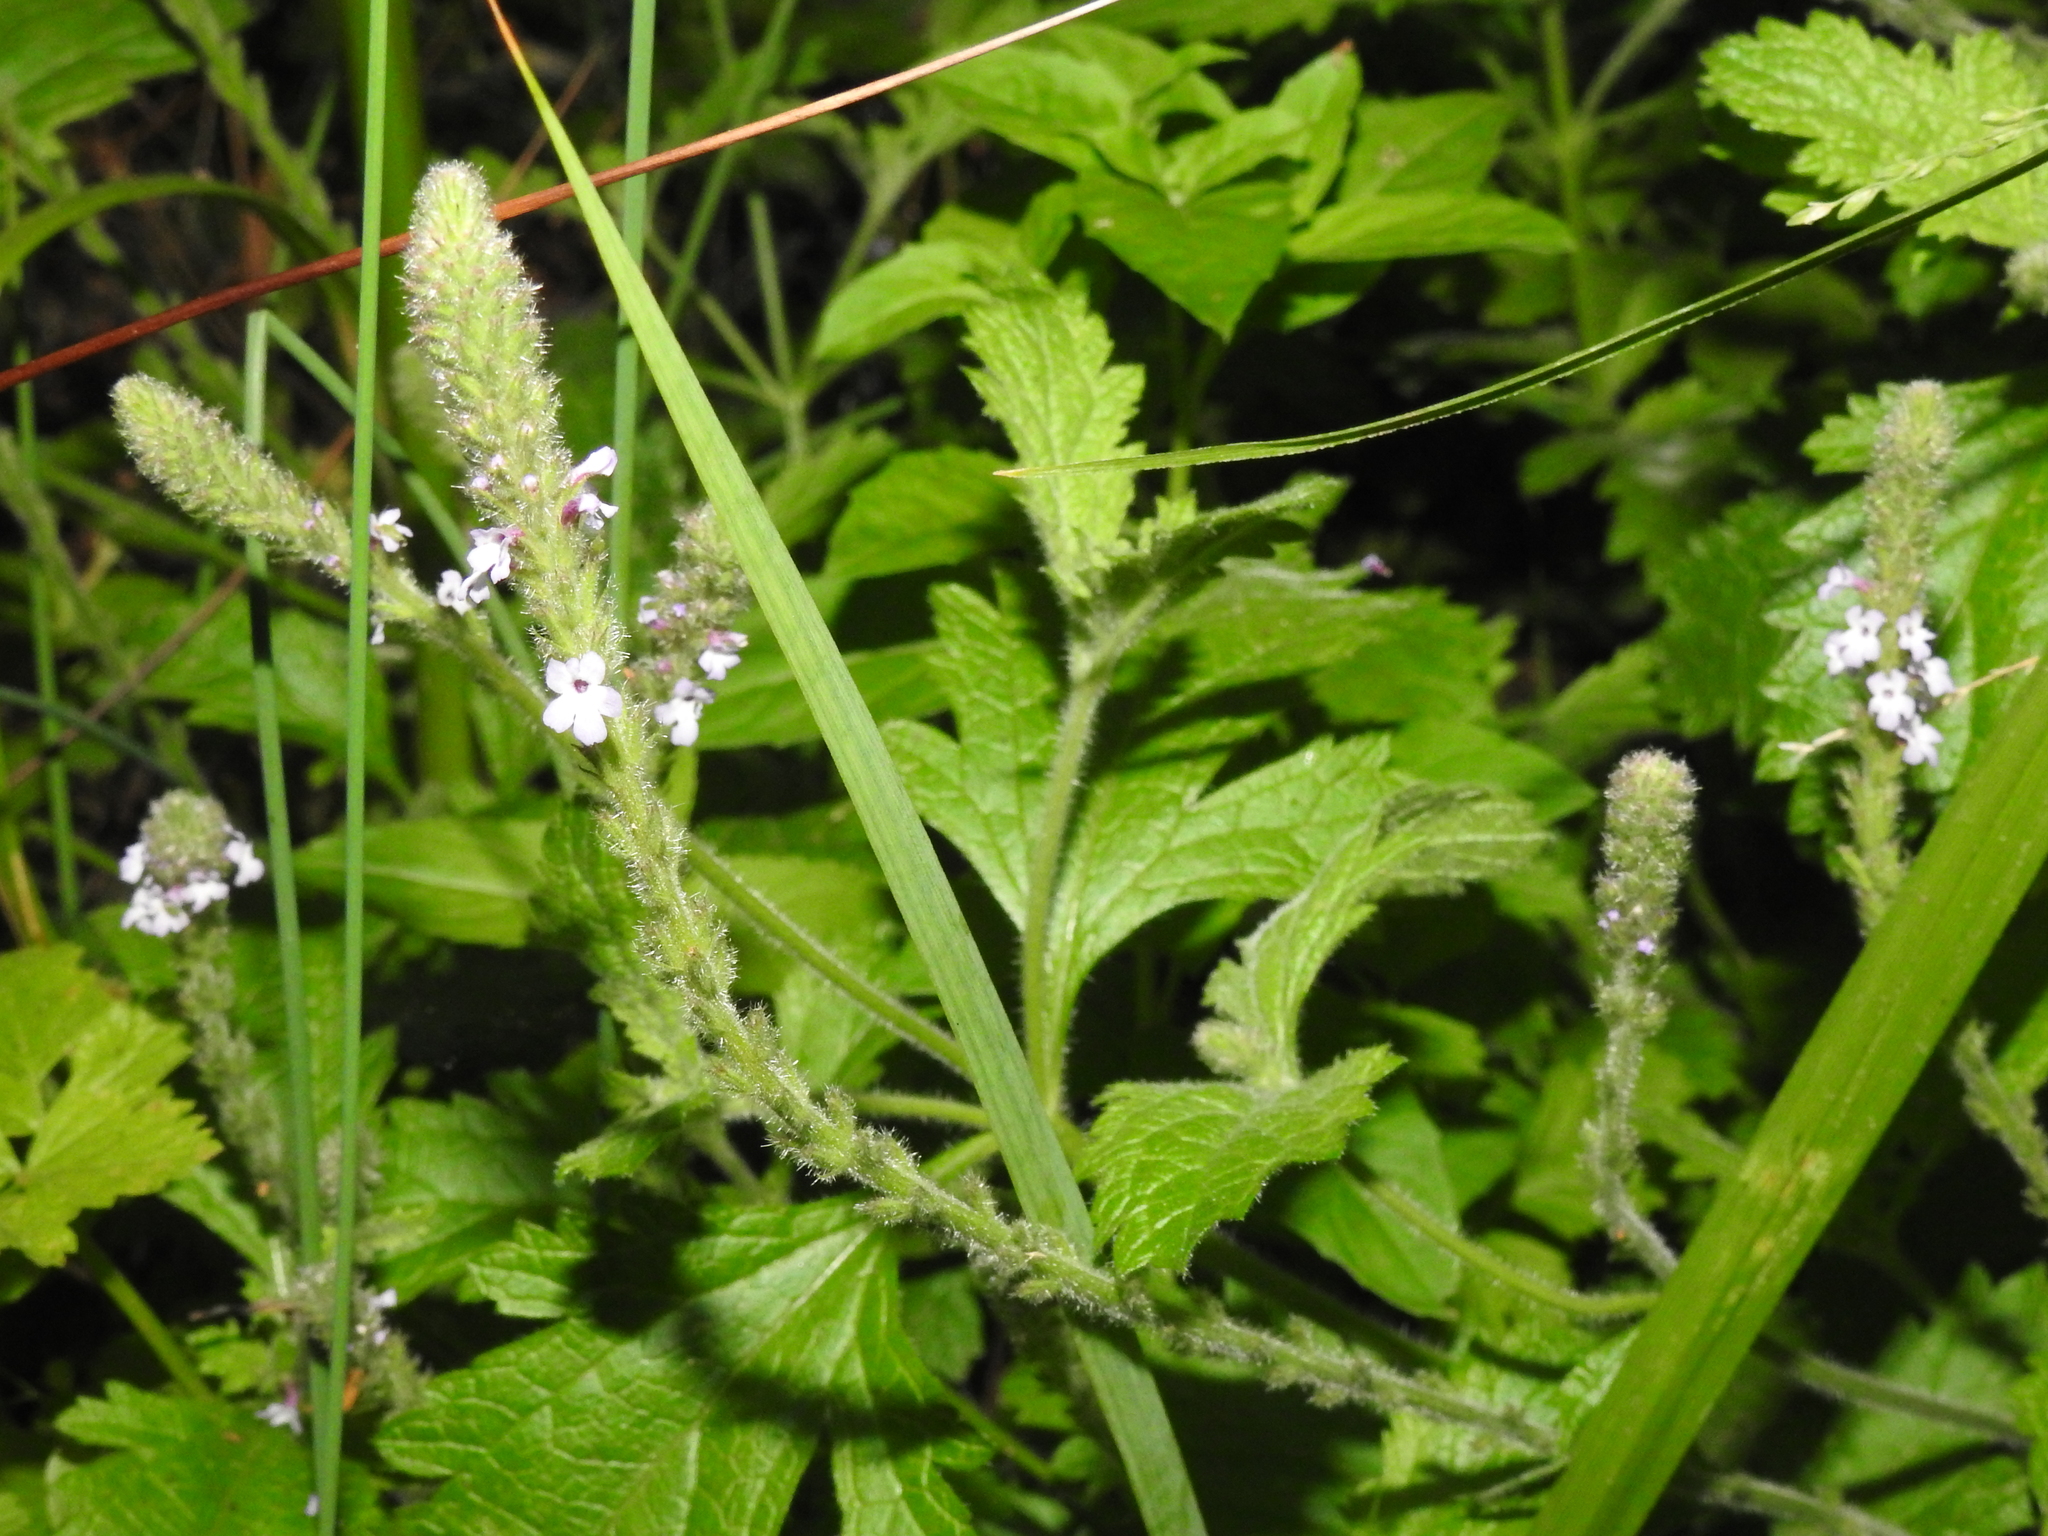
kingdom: Plantae
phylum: Tracheophyta
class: Magnoliopsida
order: Lamiales
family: Verbenaceae
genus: Verbena
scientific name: Verbena lasiostachys
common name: Vervain
